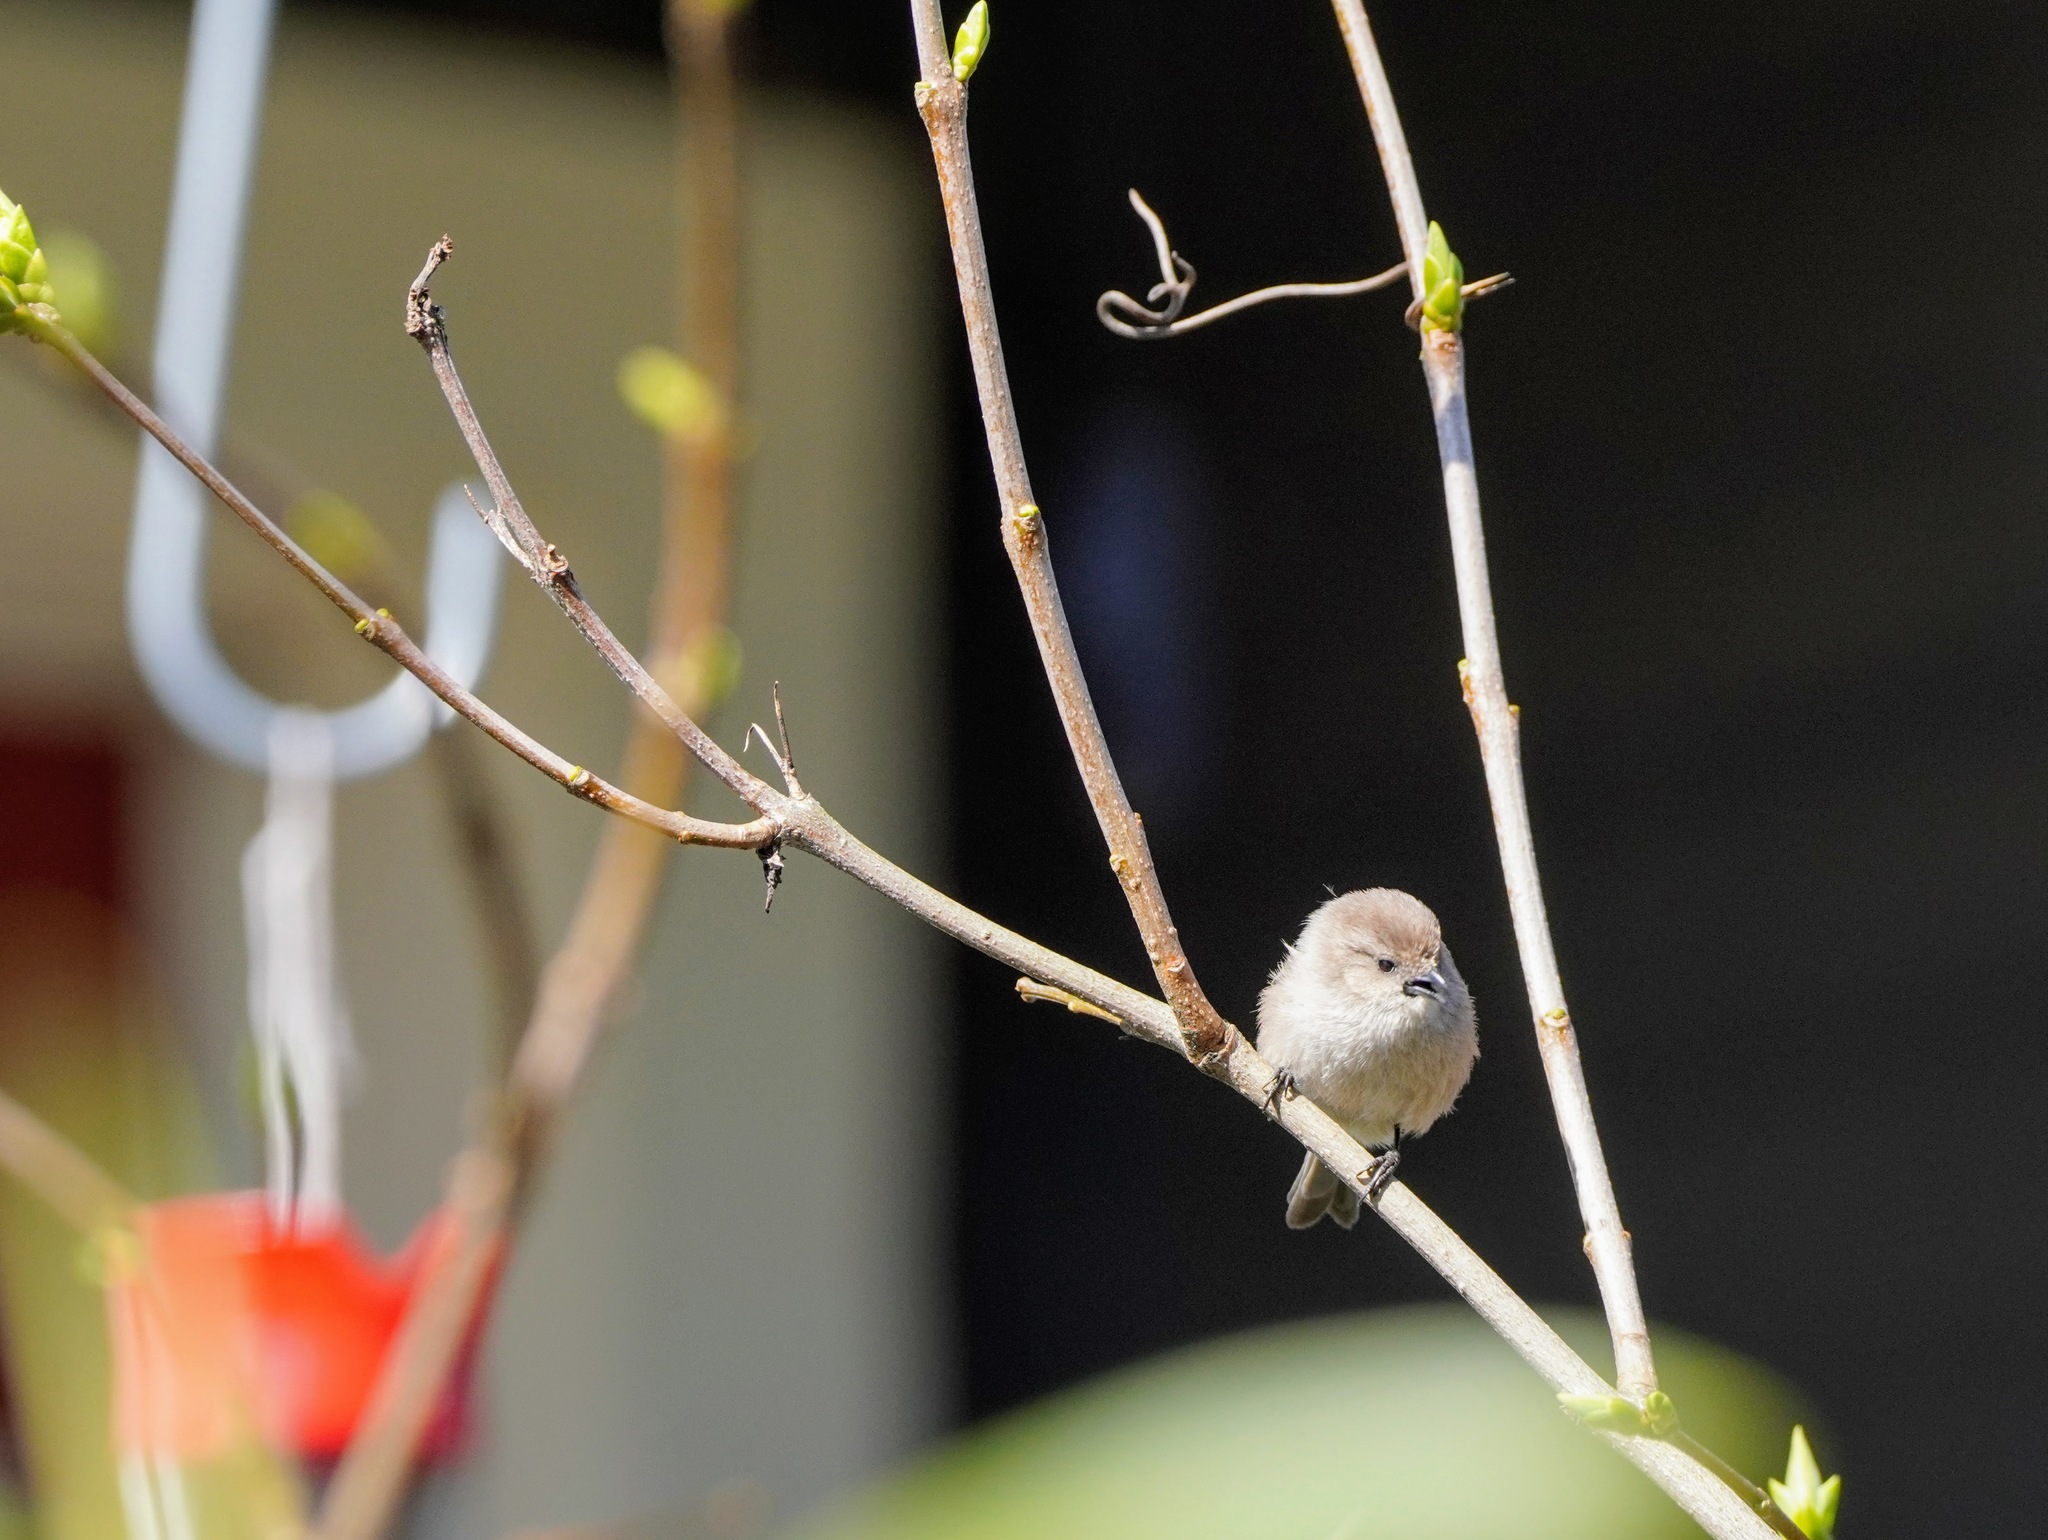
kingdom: Animalia
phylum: Chordata
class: Aves
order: Passeriformes
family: Aegithalidae
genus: Psaltriparus
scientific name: Psaltriparus minimus
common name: American bushtit
